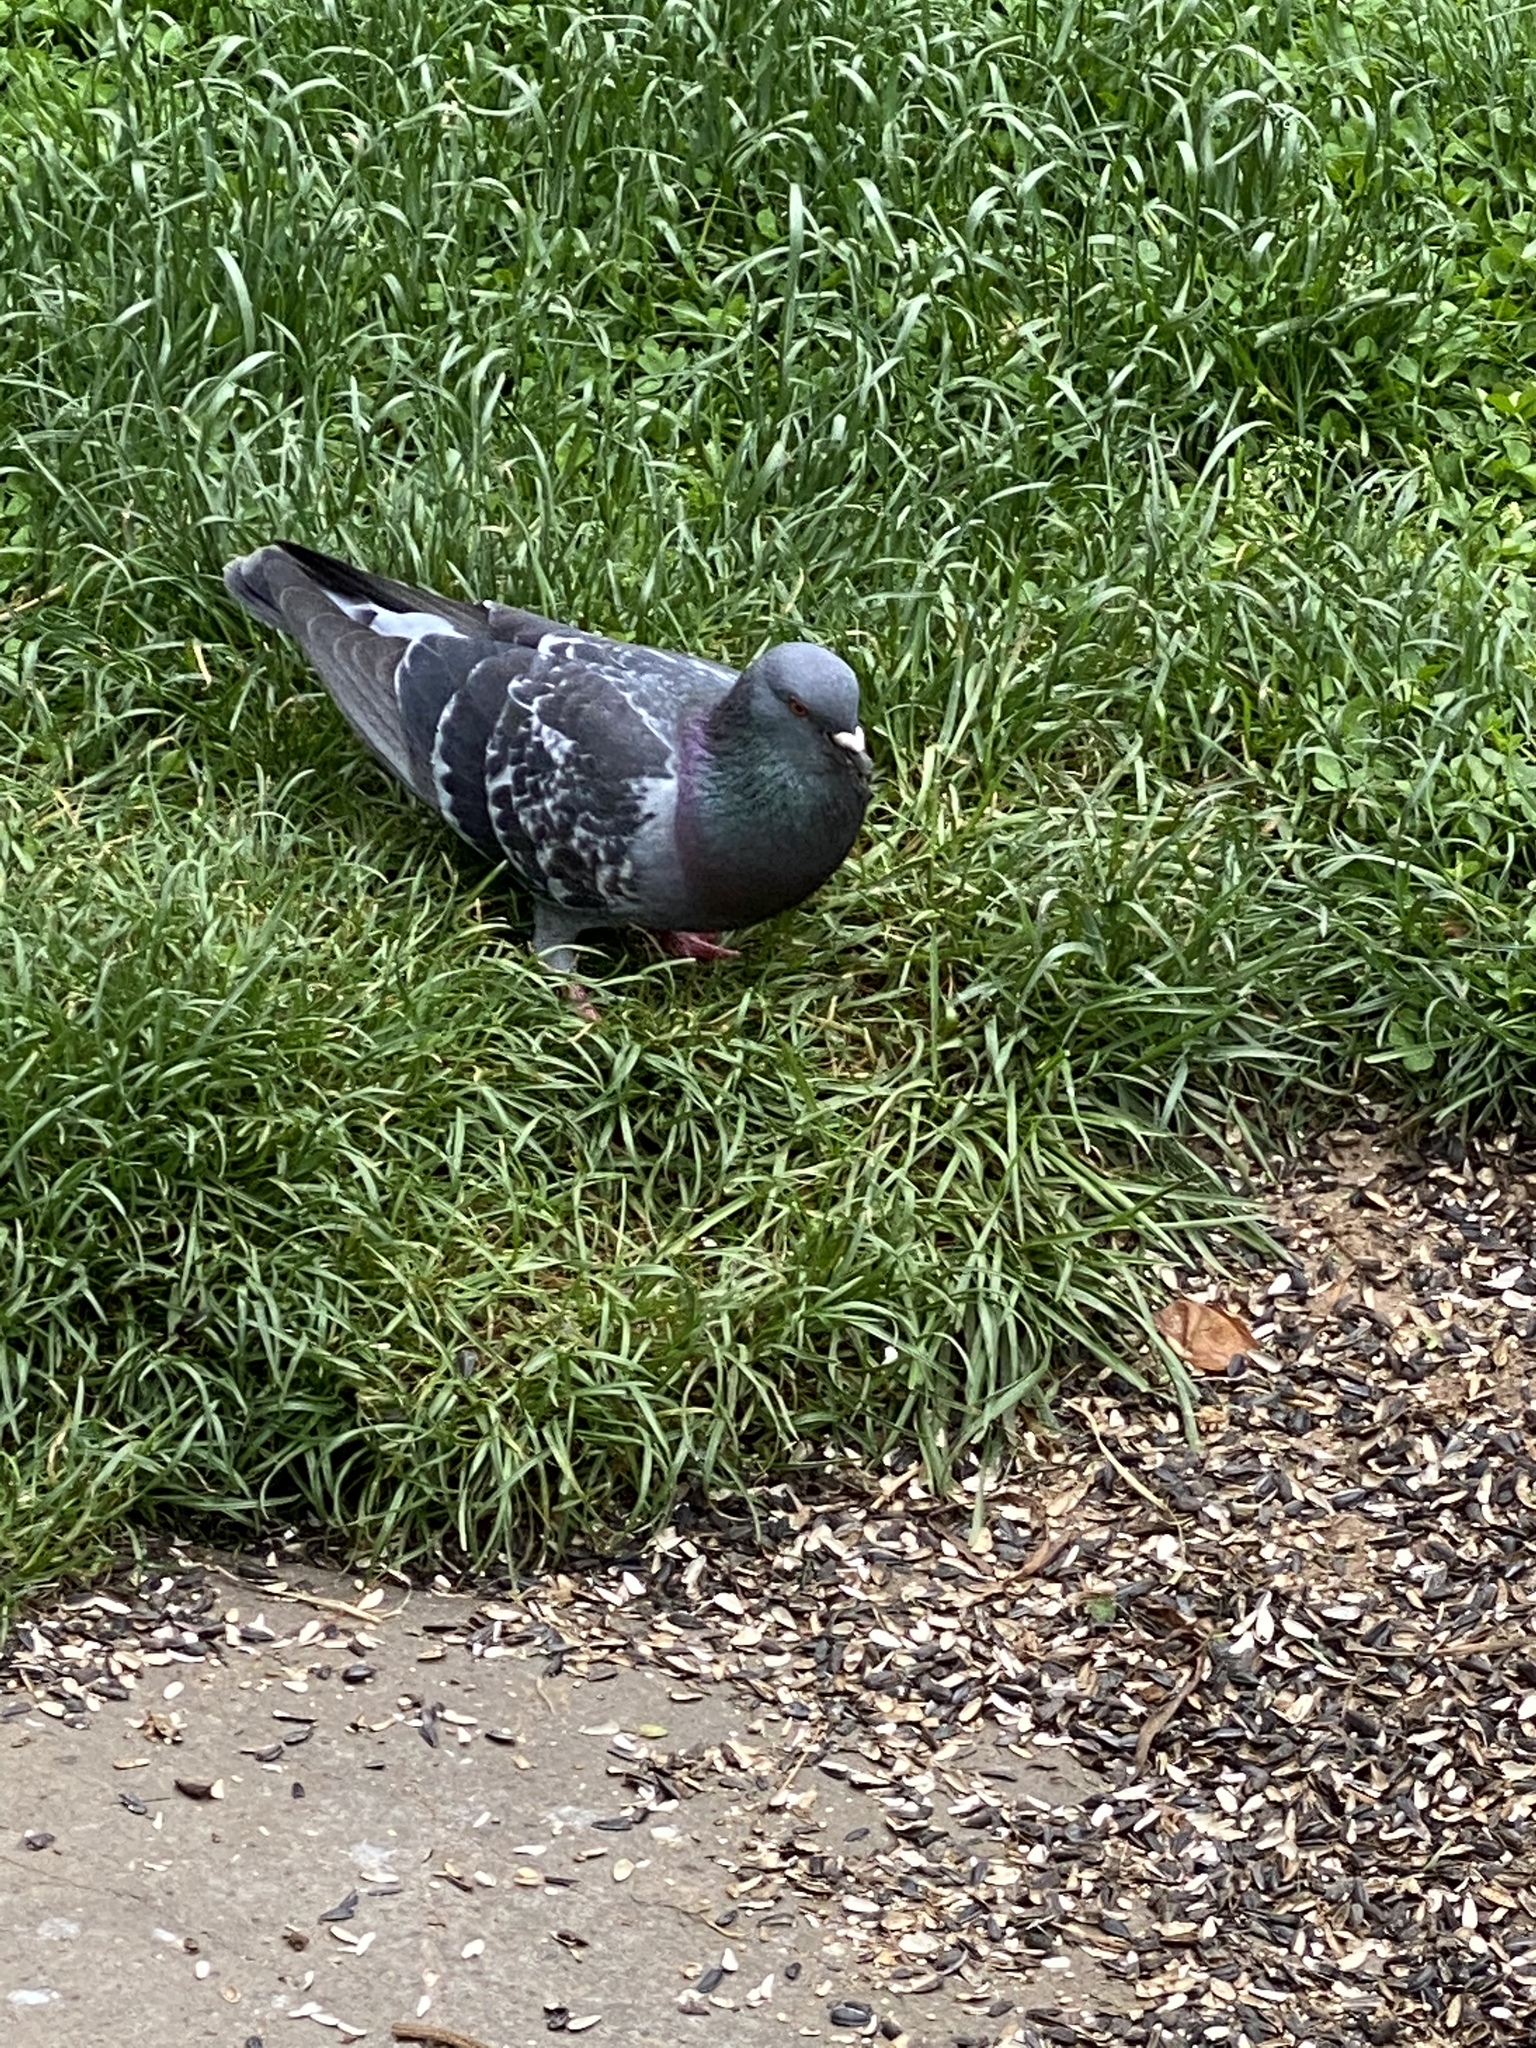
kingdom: Animalia
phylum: Chordata
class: Aves
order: Columbiformes
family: Columbidae
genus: Columba
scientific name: Columba livia
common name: Rock pigeon
